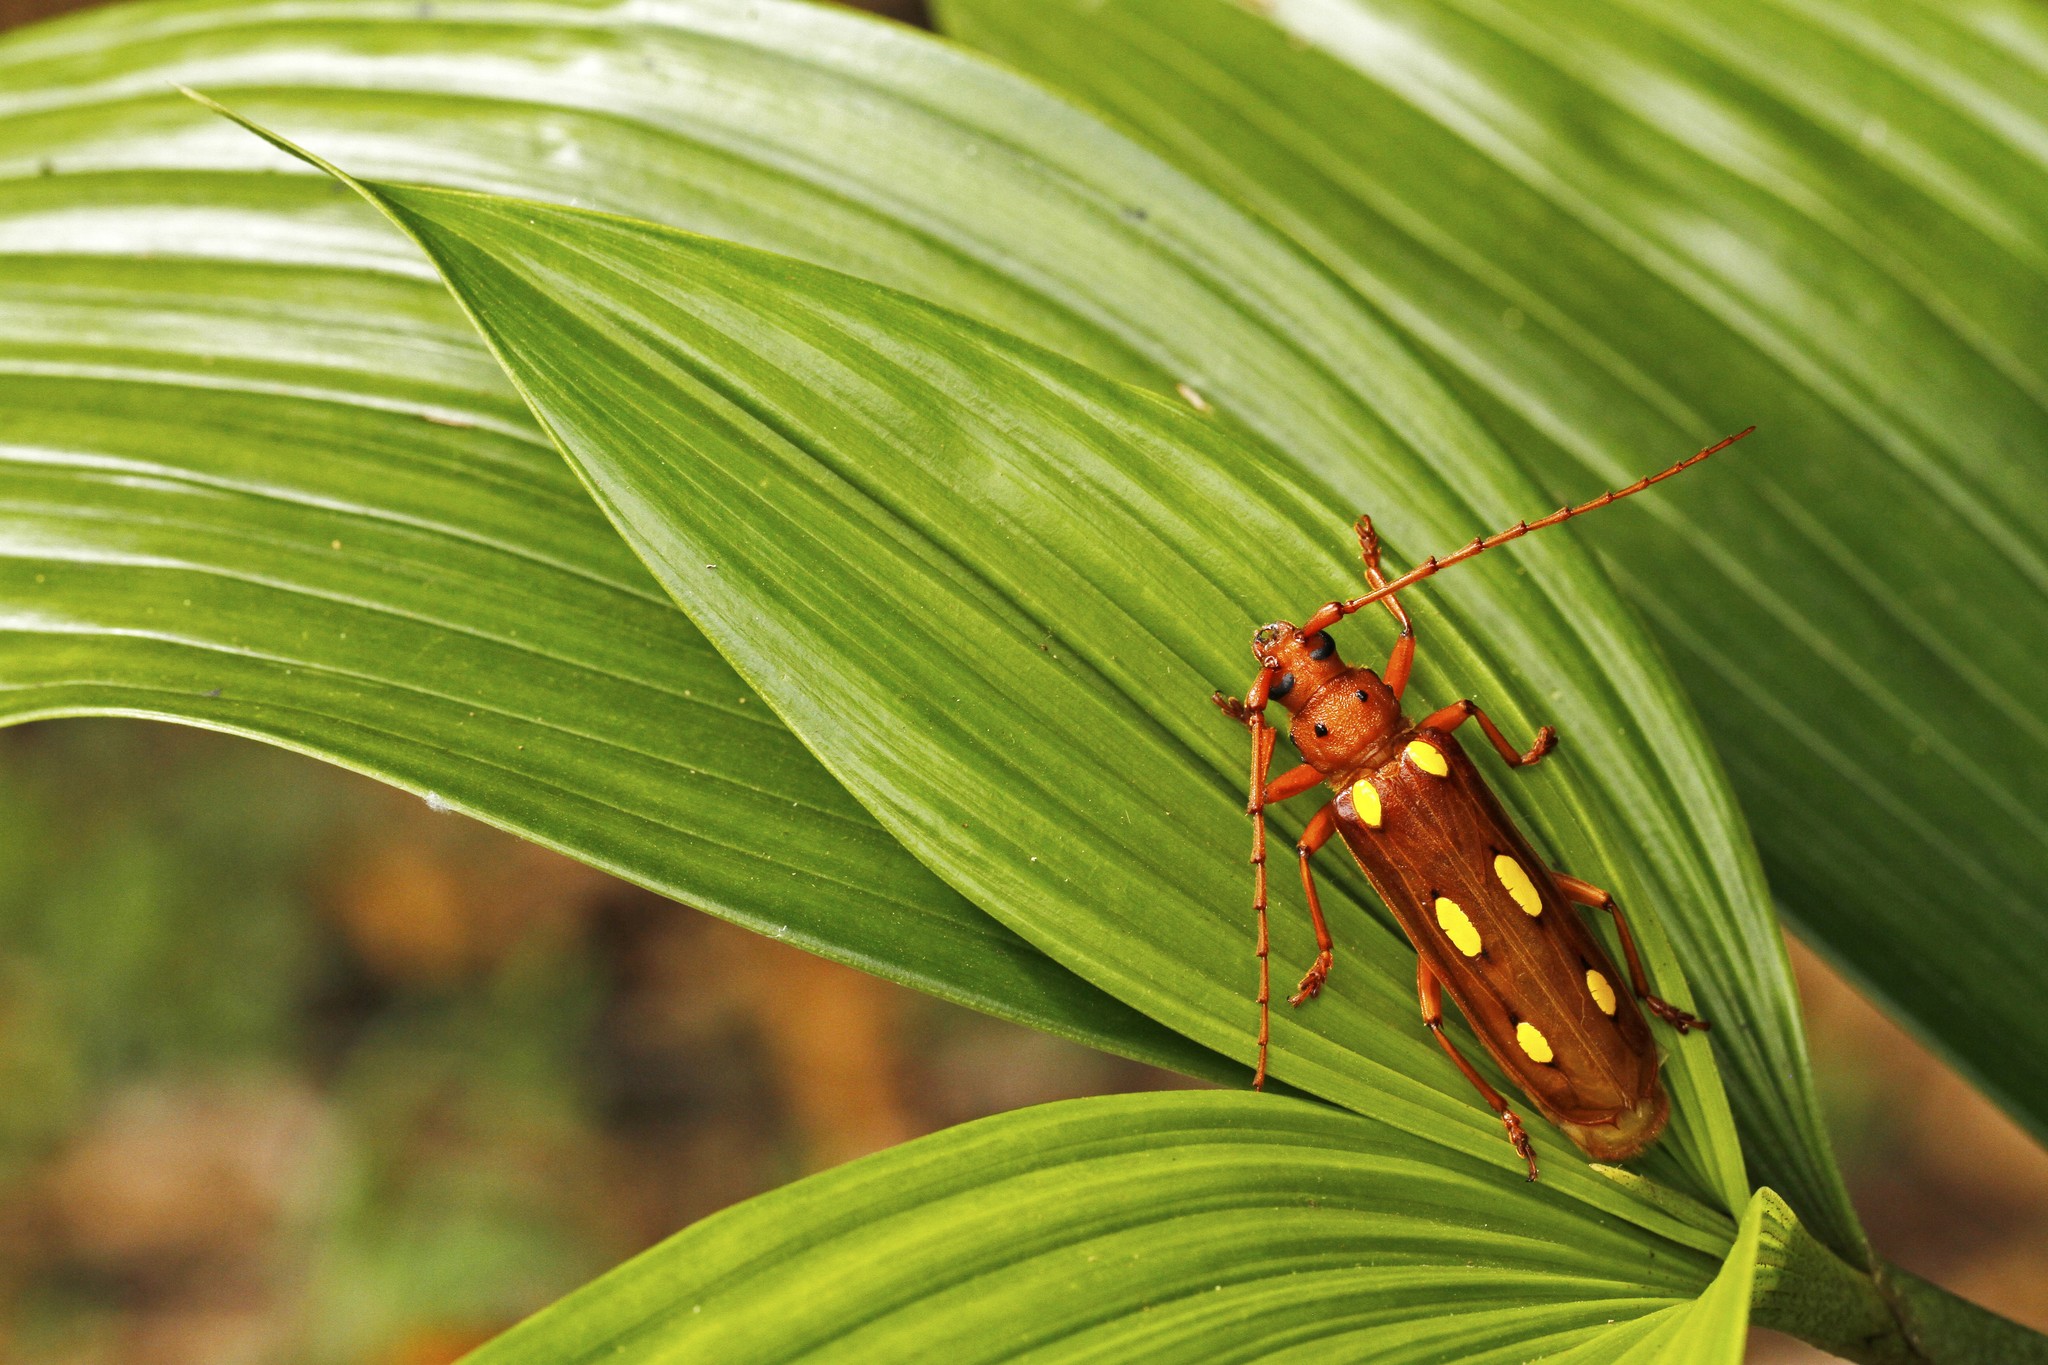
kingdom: Animalia
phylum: Arthropoda
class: Insecta
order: Coleoptera
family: Cerambycidae
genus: Coccoderus
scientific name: Coccoderus timbaraba
